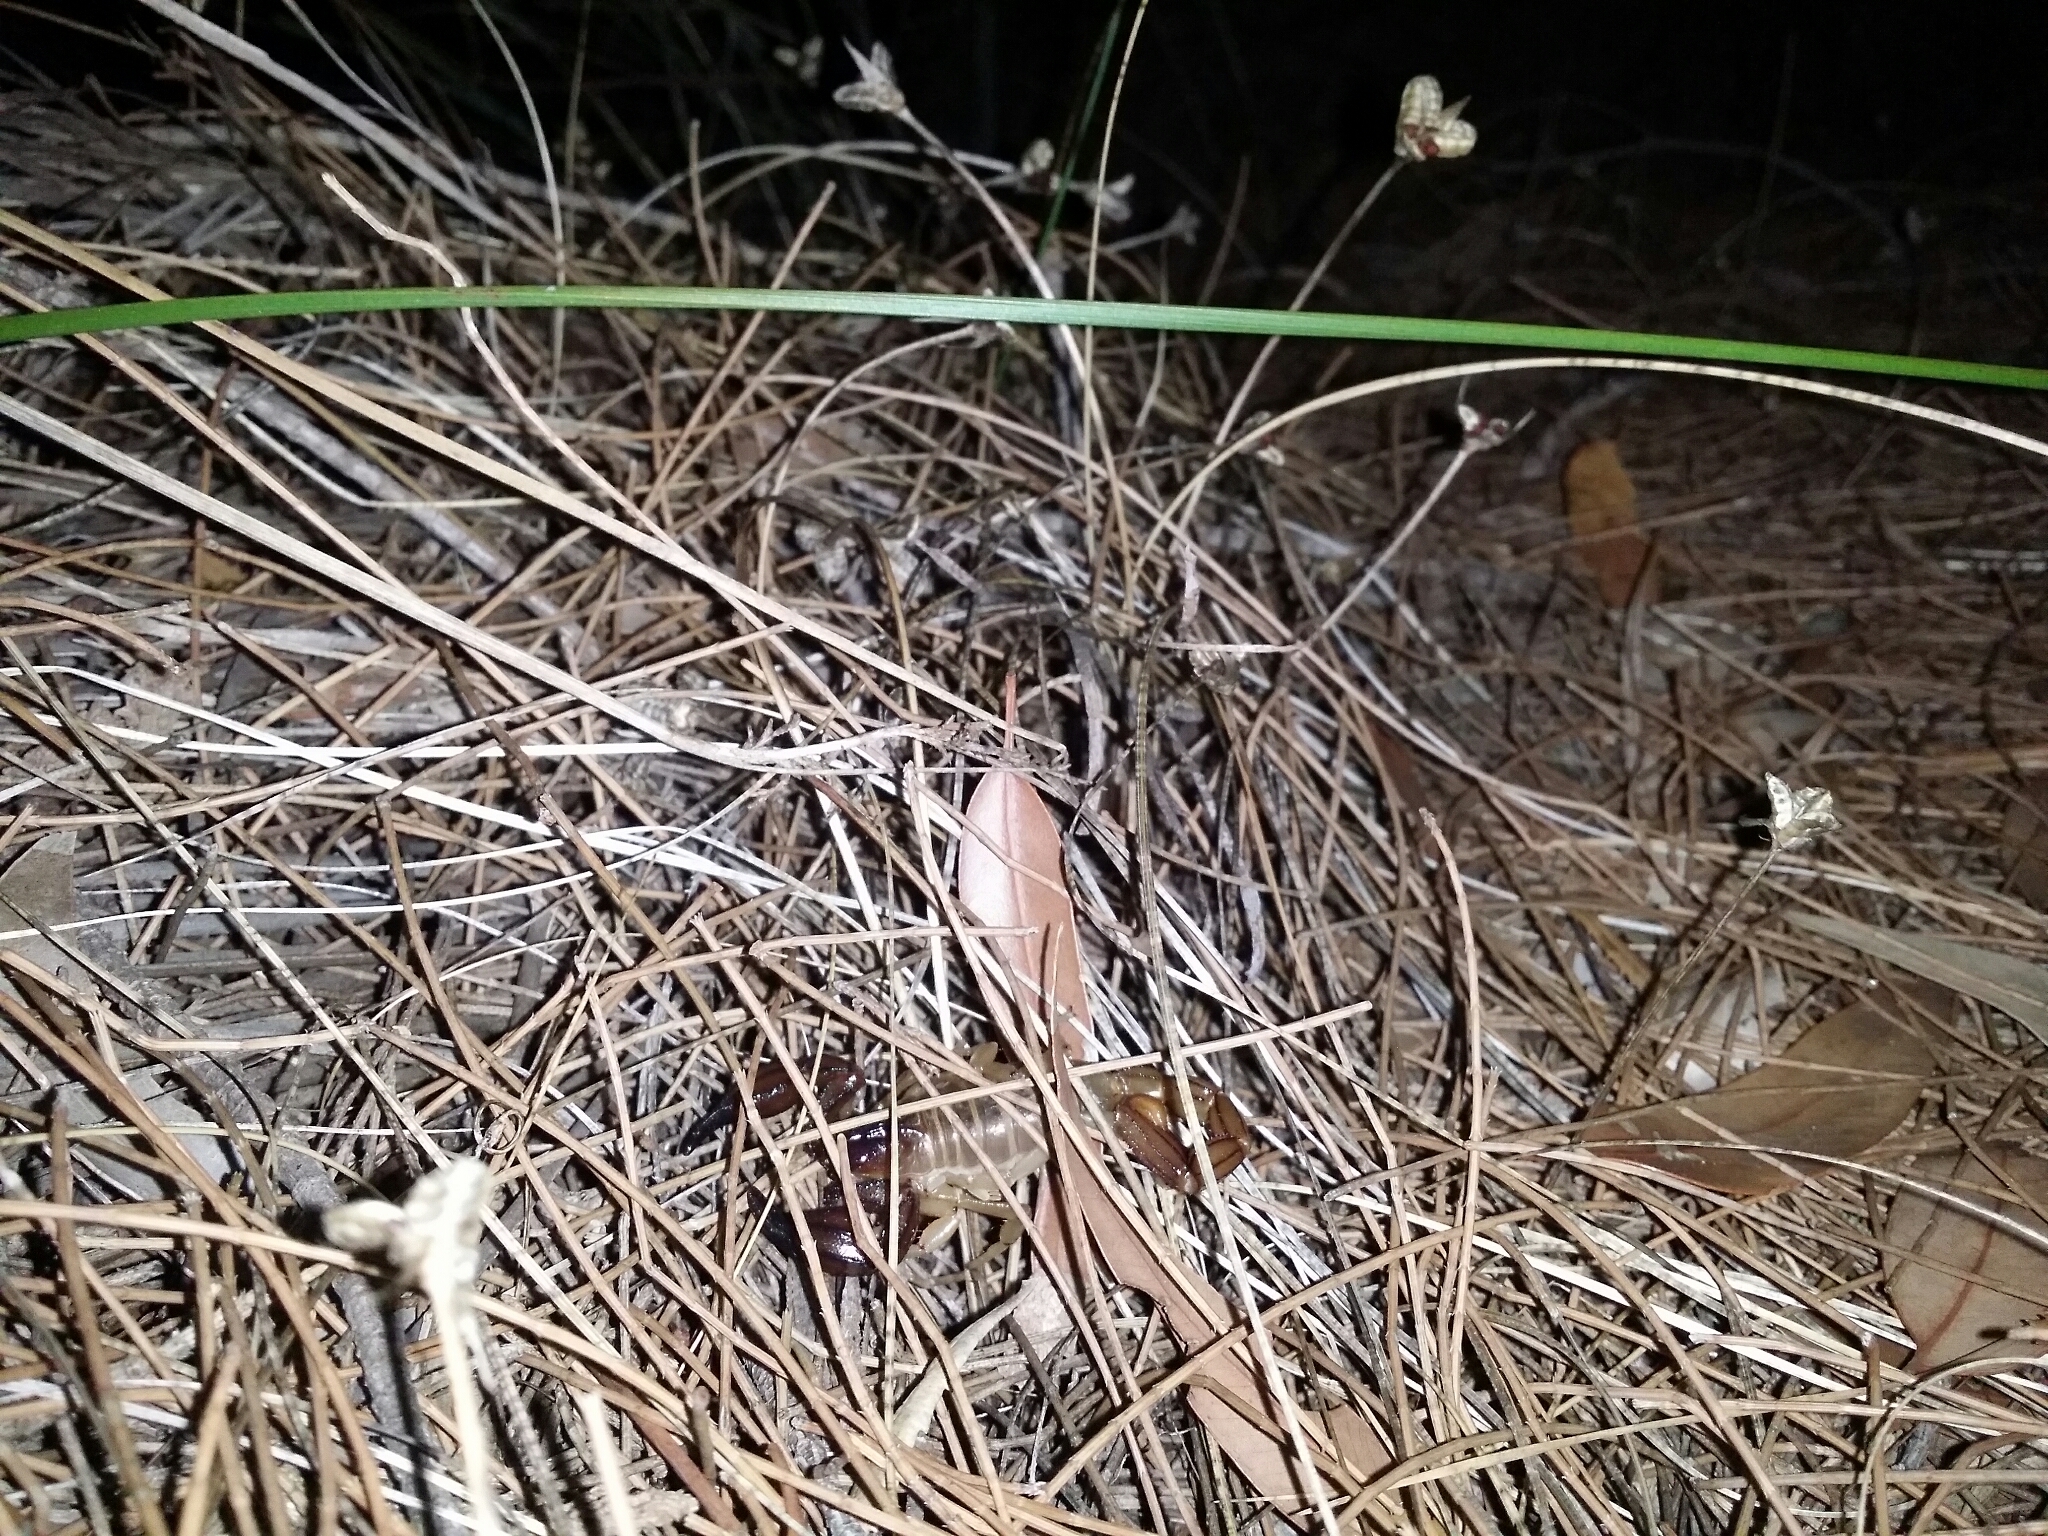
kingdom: Animalia
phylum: Arthropoda
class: Arachnida
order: Scorpiones
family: Scorpionidae
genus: Urodacus
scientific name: Urodacus novaehollandiae
